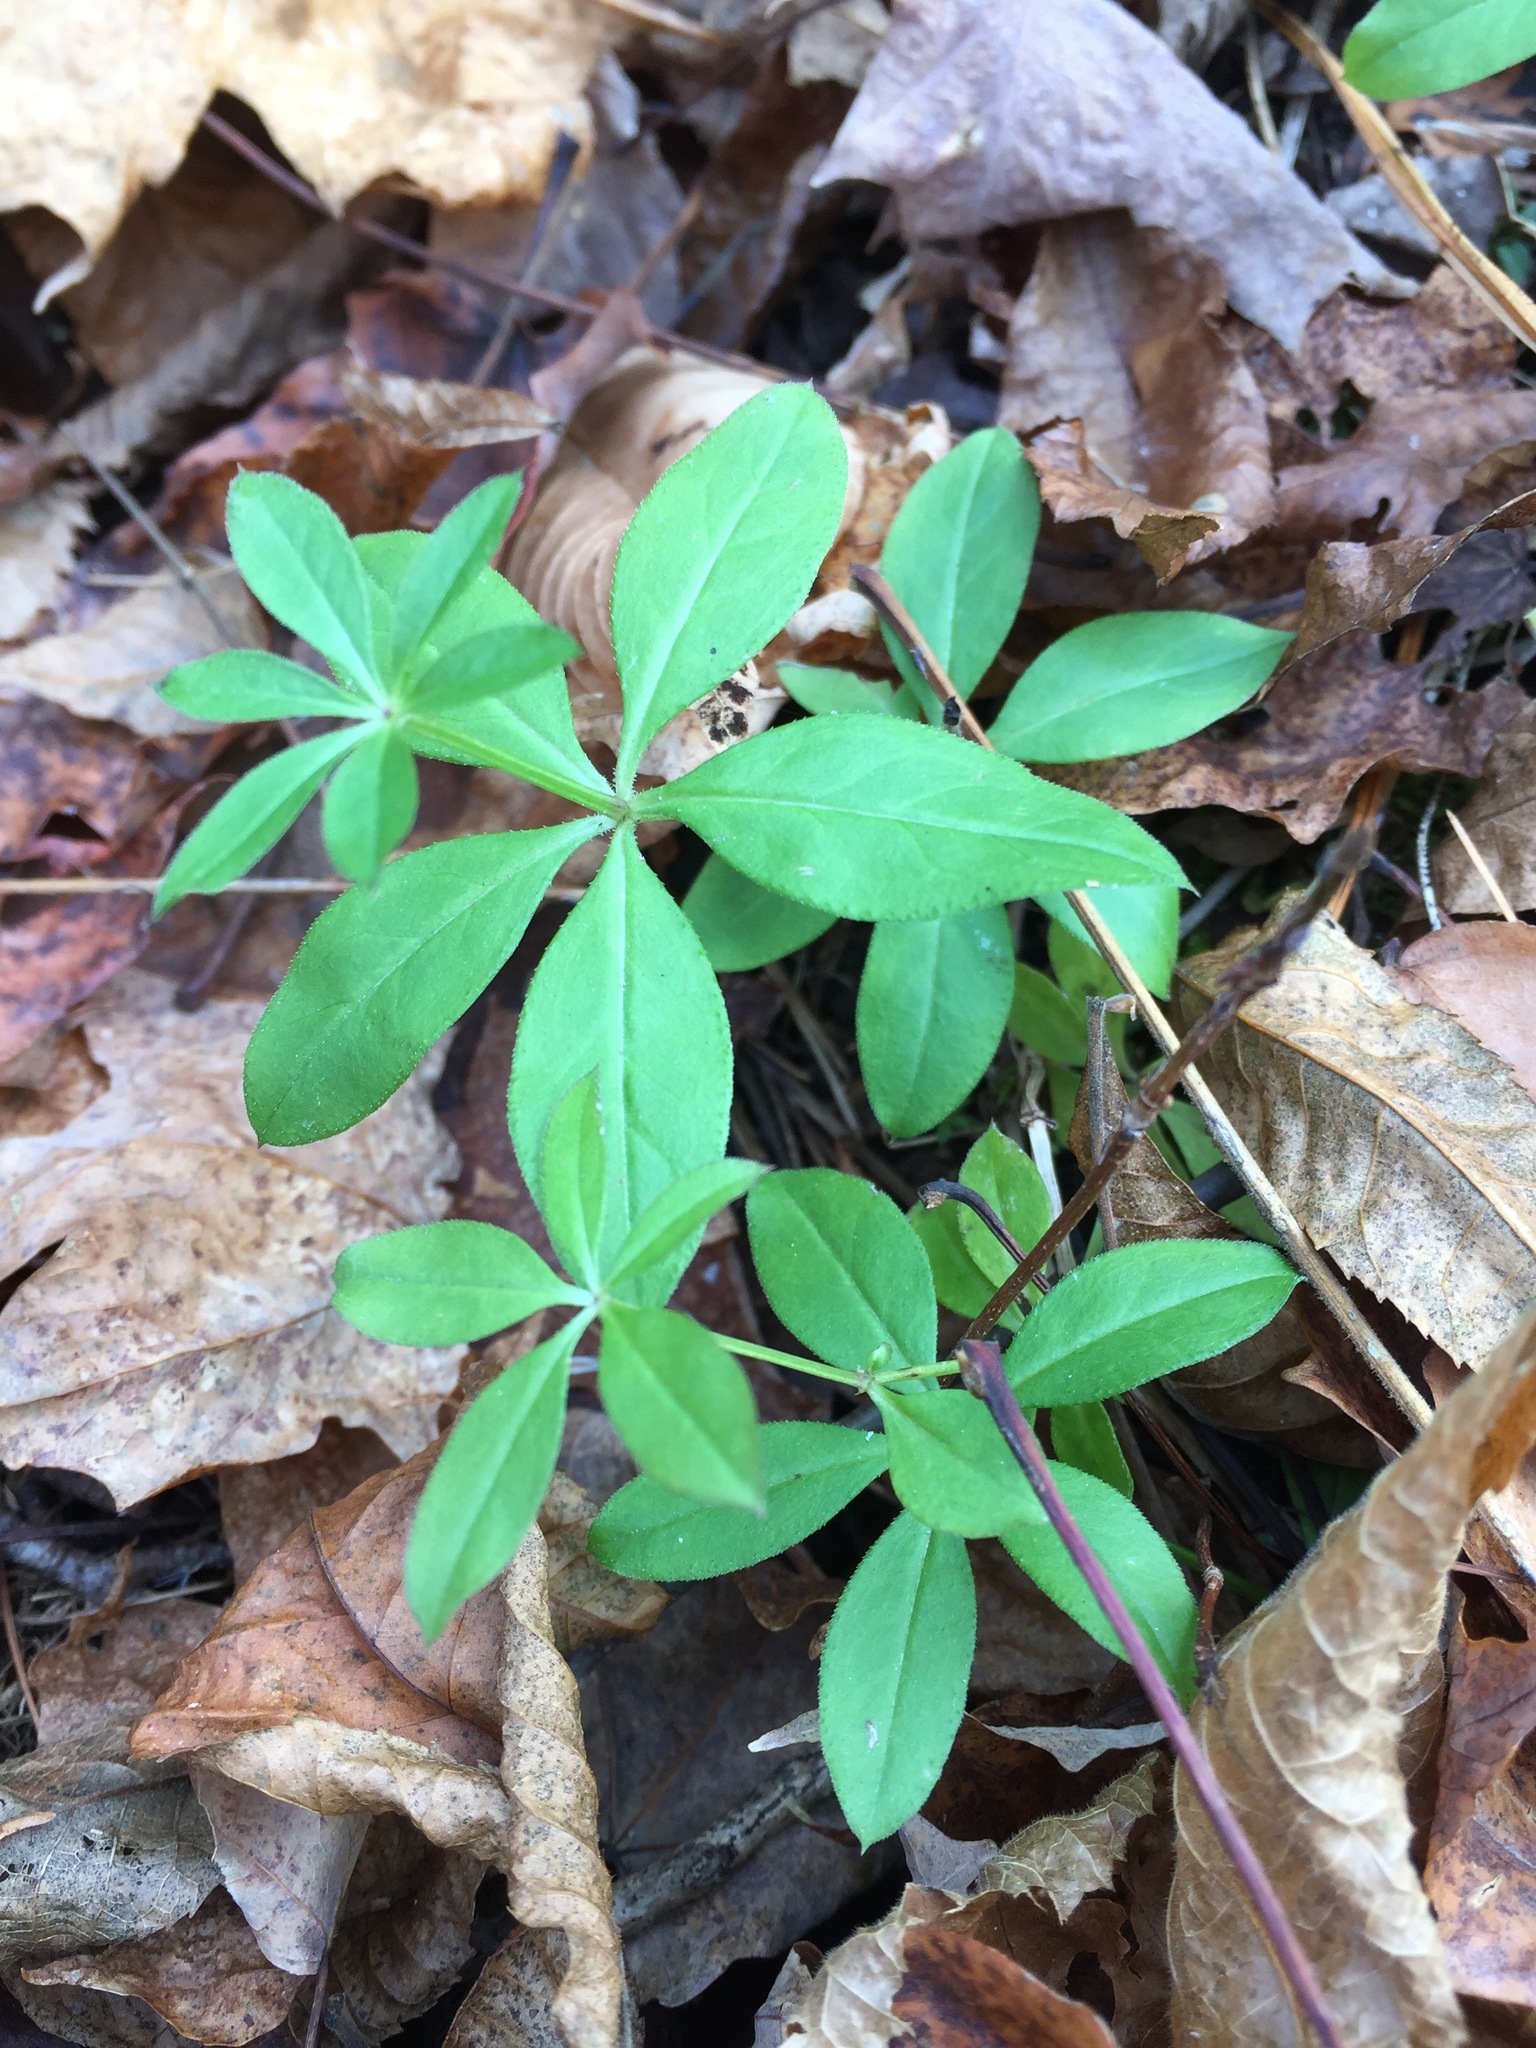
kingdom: Plantae
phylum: Tracheophyta
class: Magnoliopsida
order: Gentianales
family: Rubiaceae
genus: Galium
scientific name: Galium triflorum
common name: Fragrant bedstraw
